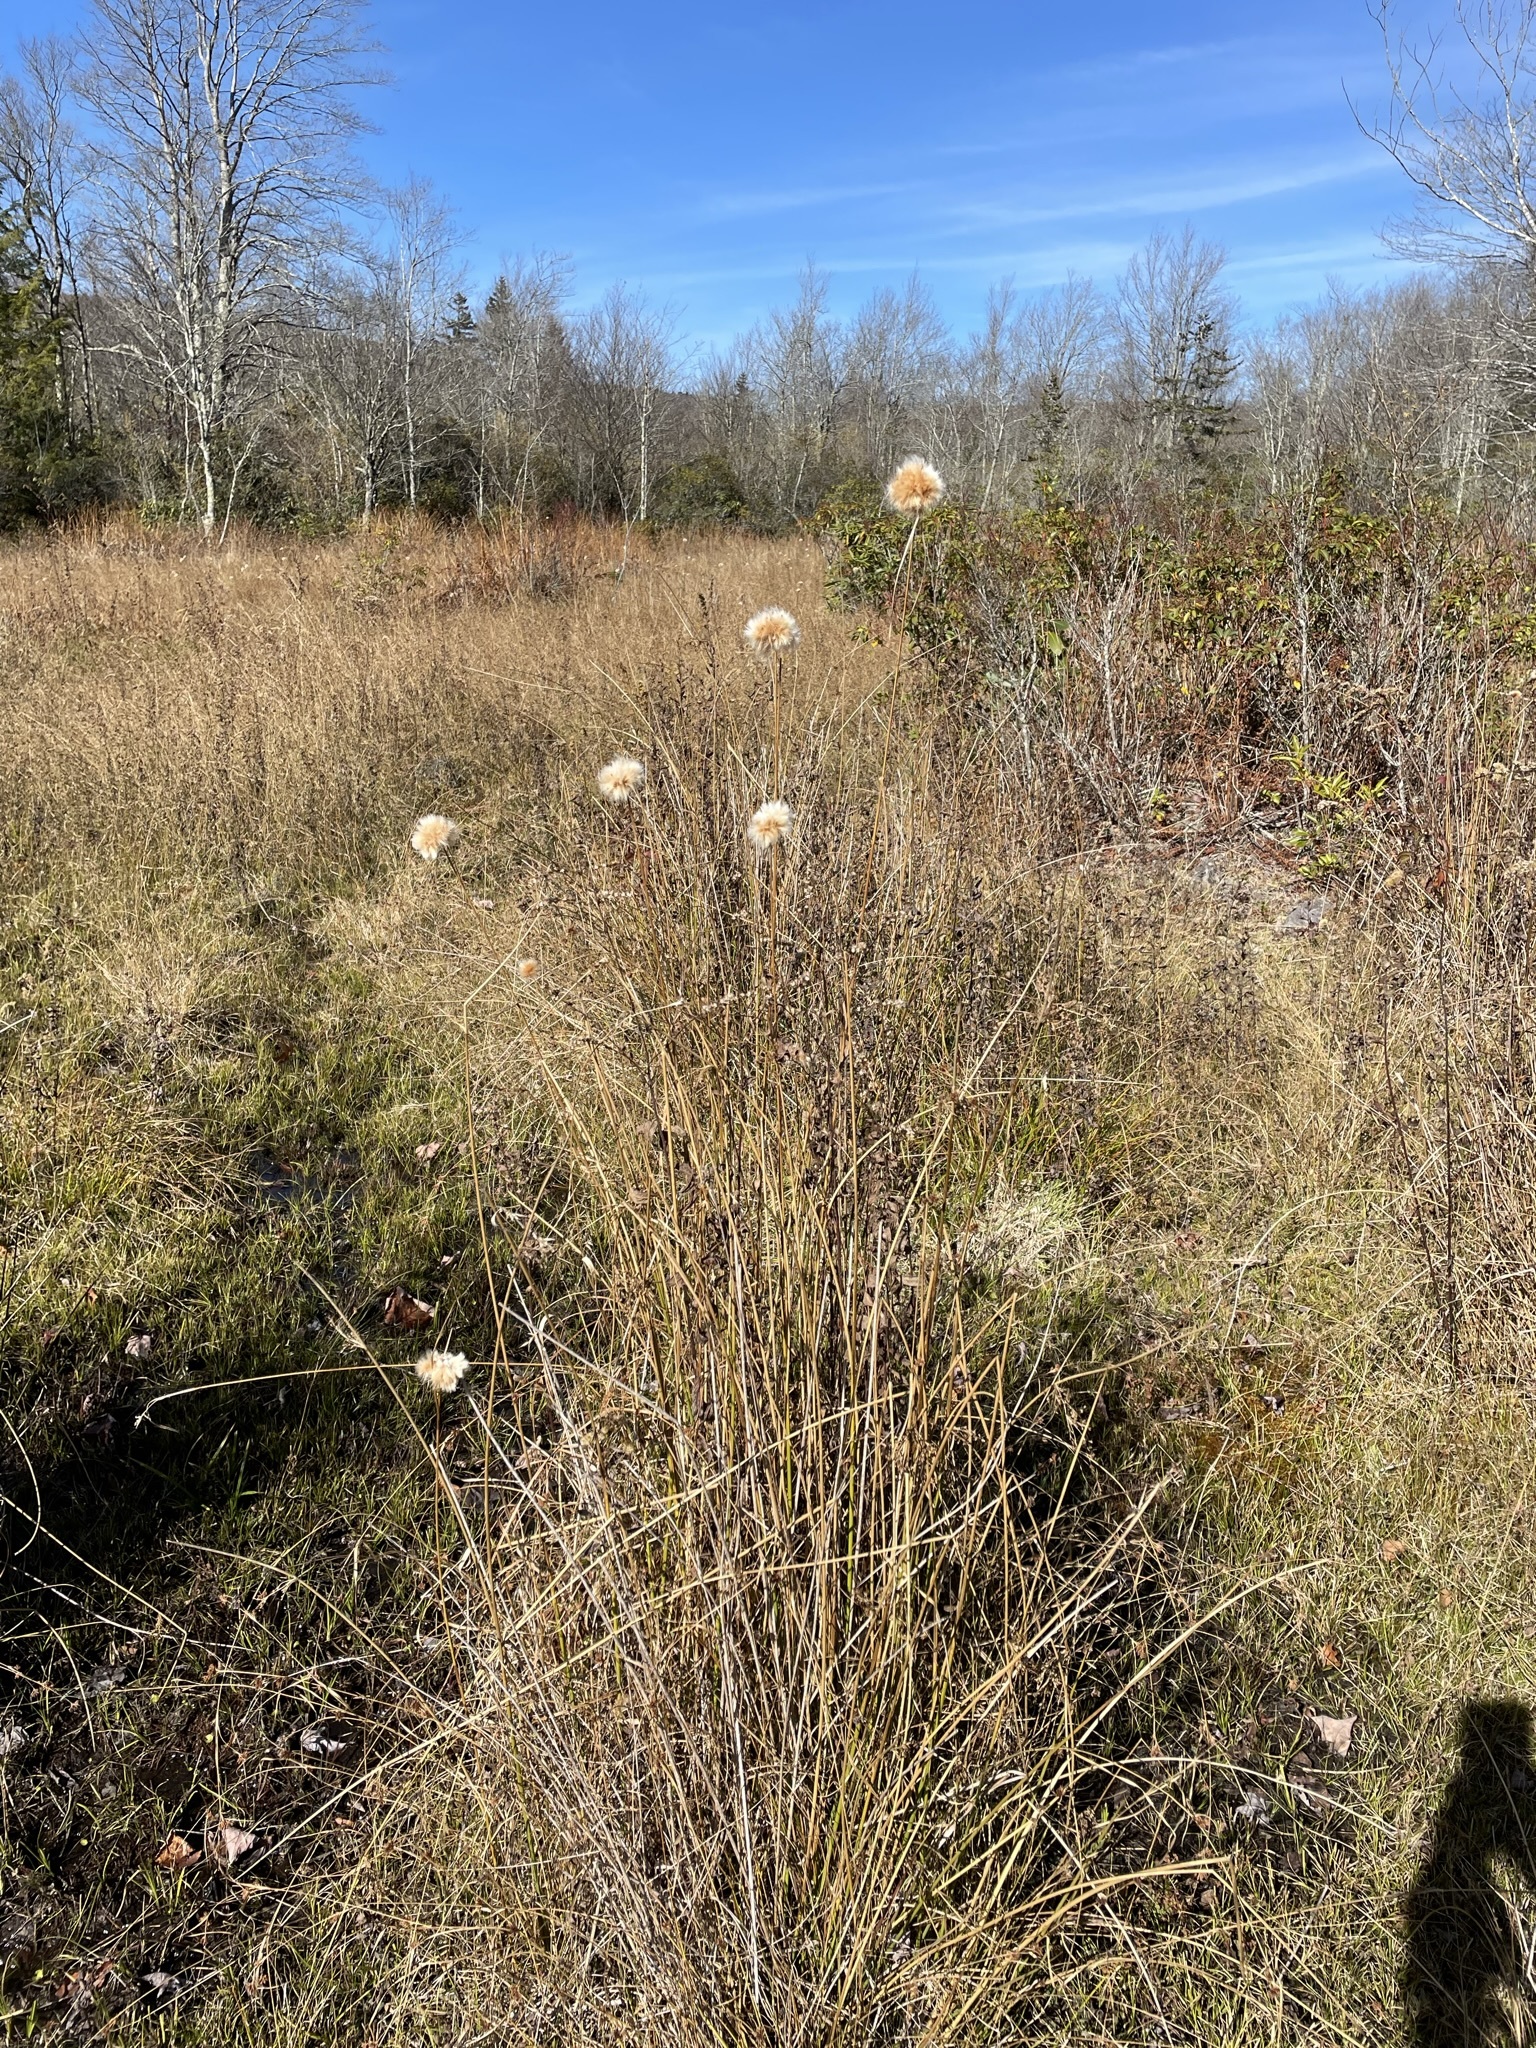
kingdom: Plantae
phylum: Tracheophyta
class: Liliopsida
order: Poales
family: Cyperaceae
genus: Eriophorum
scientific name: Eriophorum virginicum
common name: Tawny cottongrass
